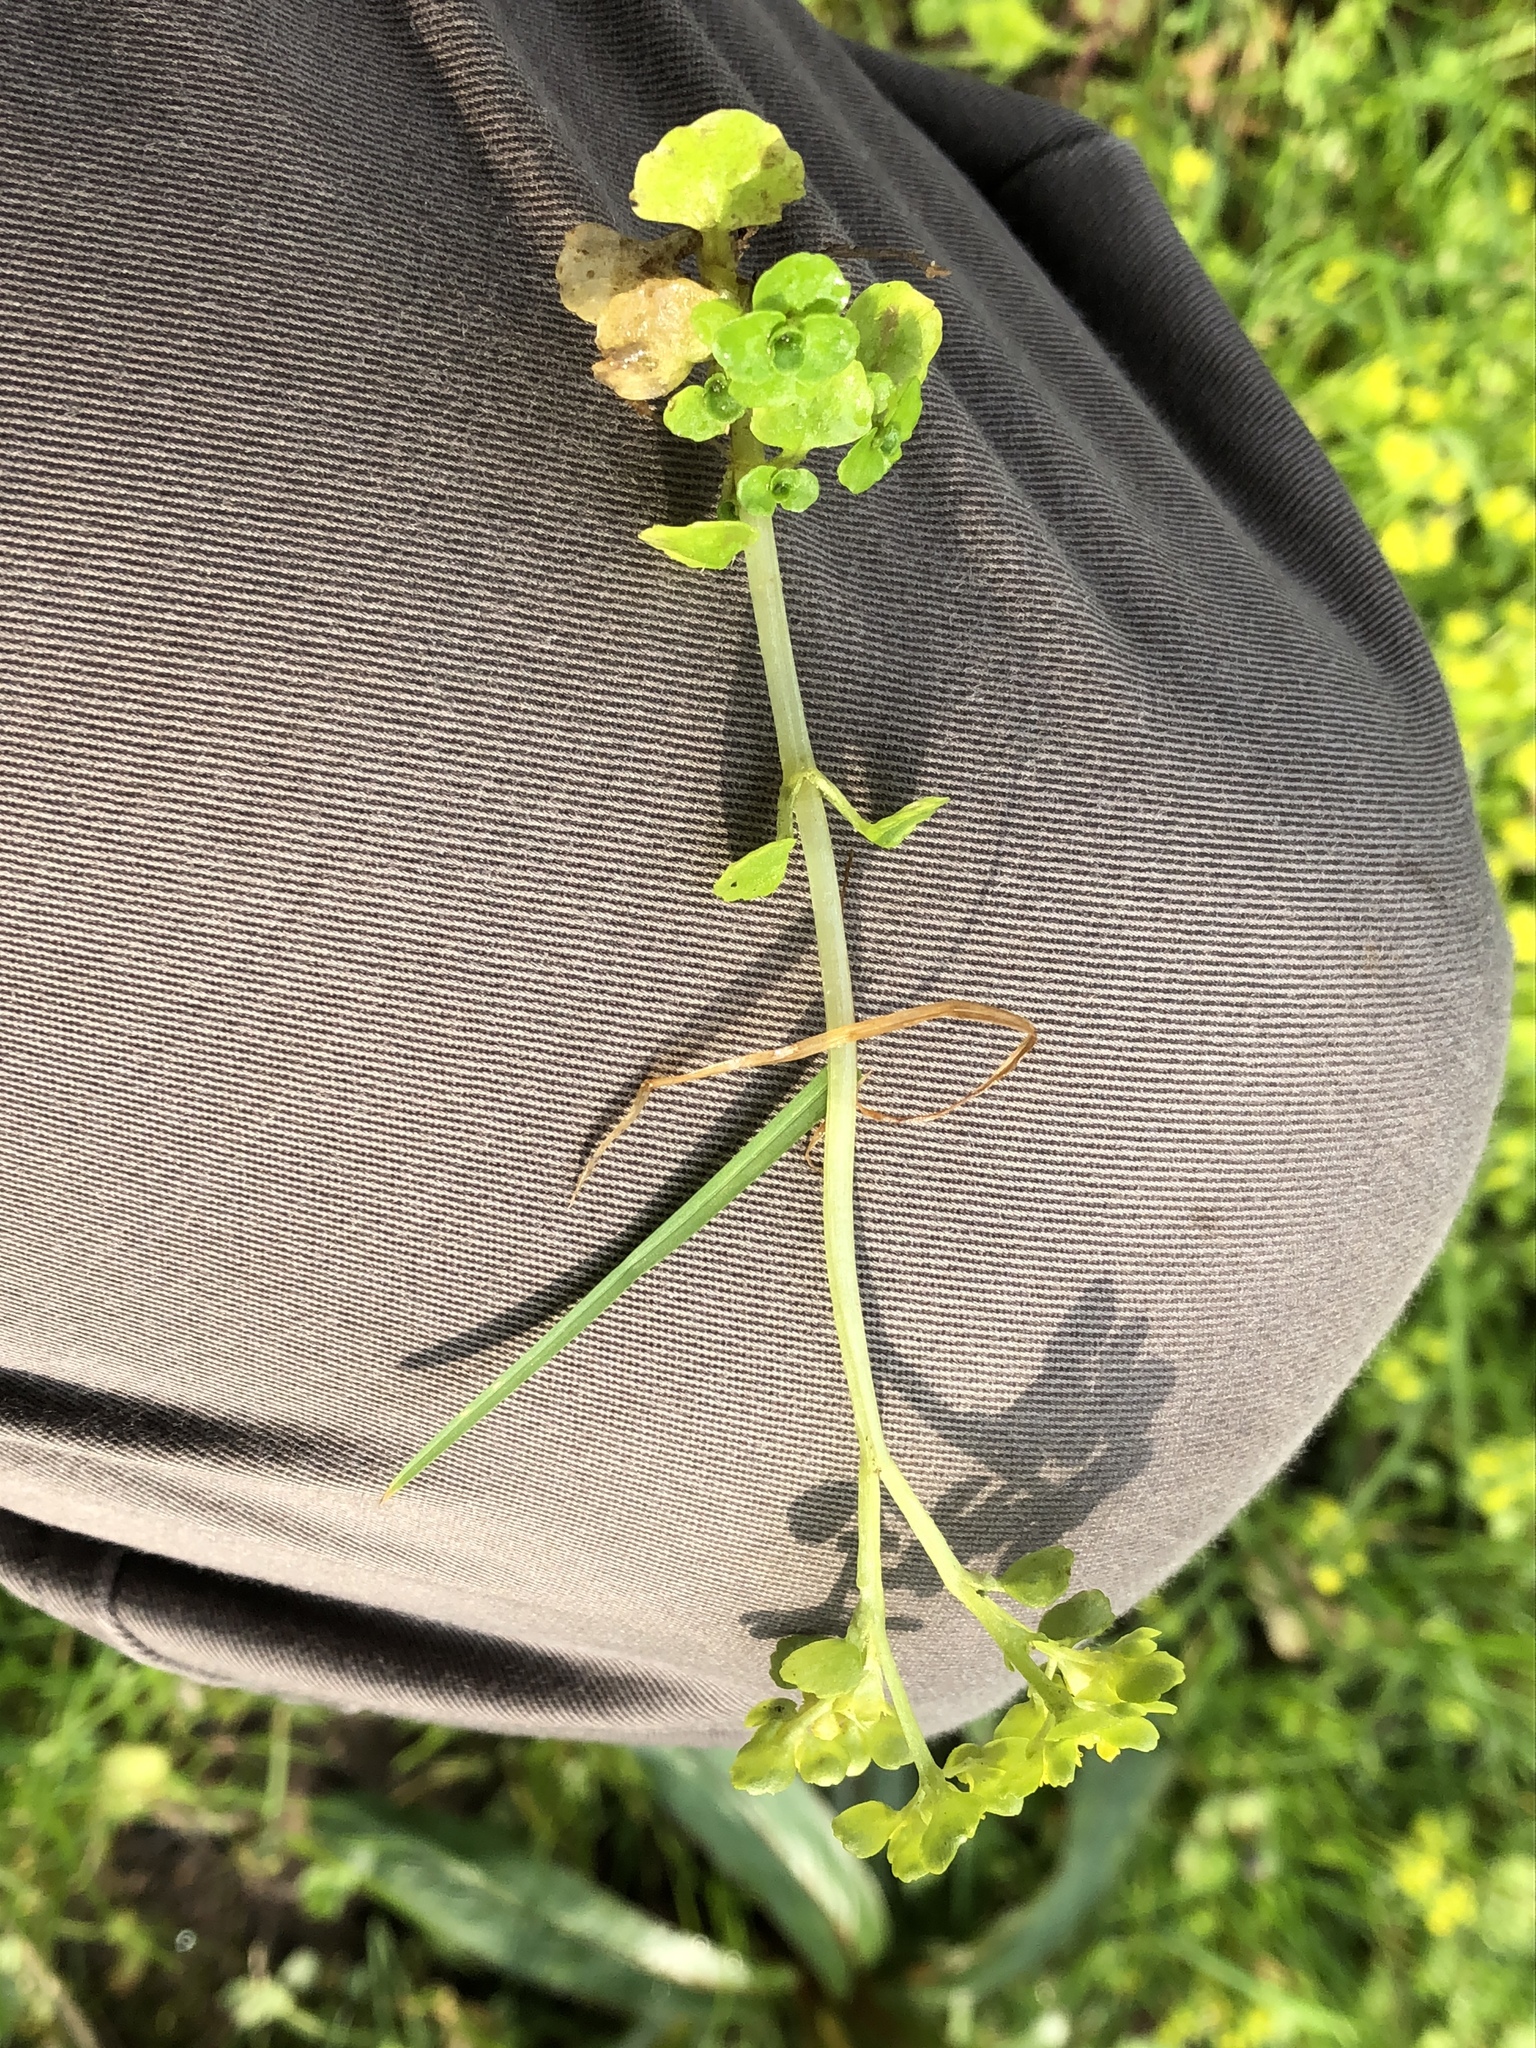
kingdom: Plantae
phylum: Tracheophyta
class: Magnoliopsida
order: Saxifragales
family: Saxifragaceae
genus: Chrysosplenium
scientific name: Chrysosplenium oppositifolium
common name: Opposite-leaved golden-saxifrage
